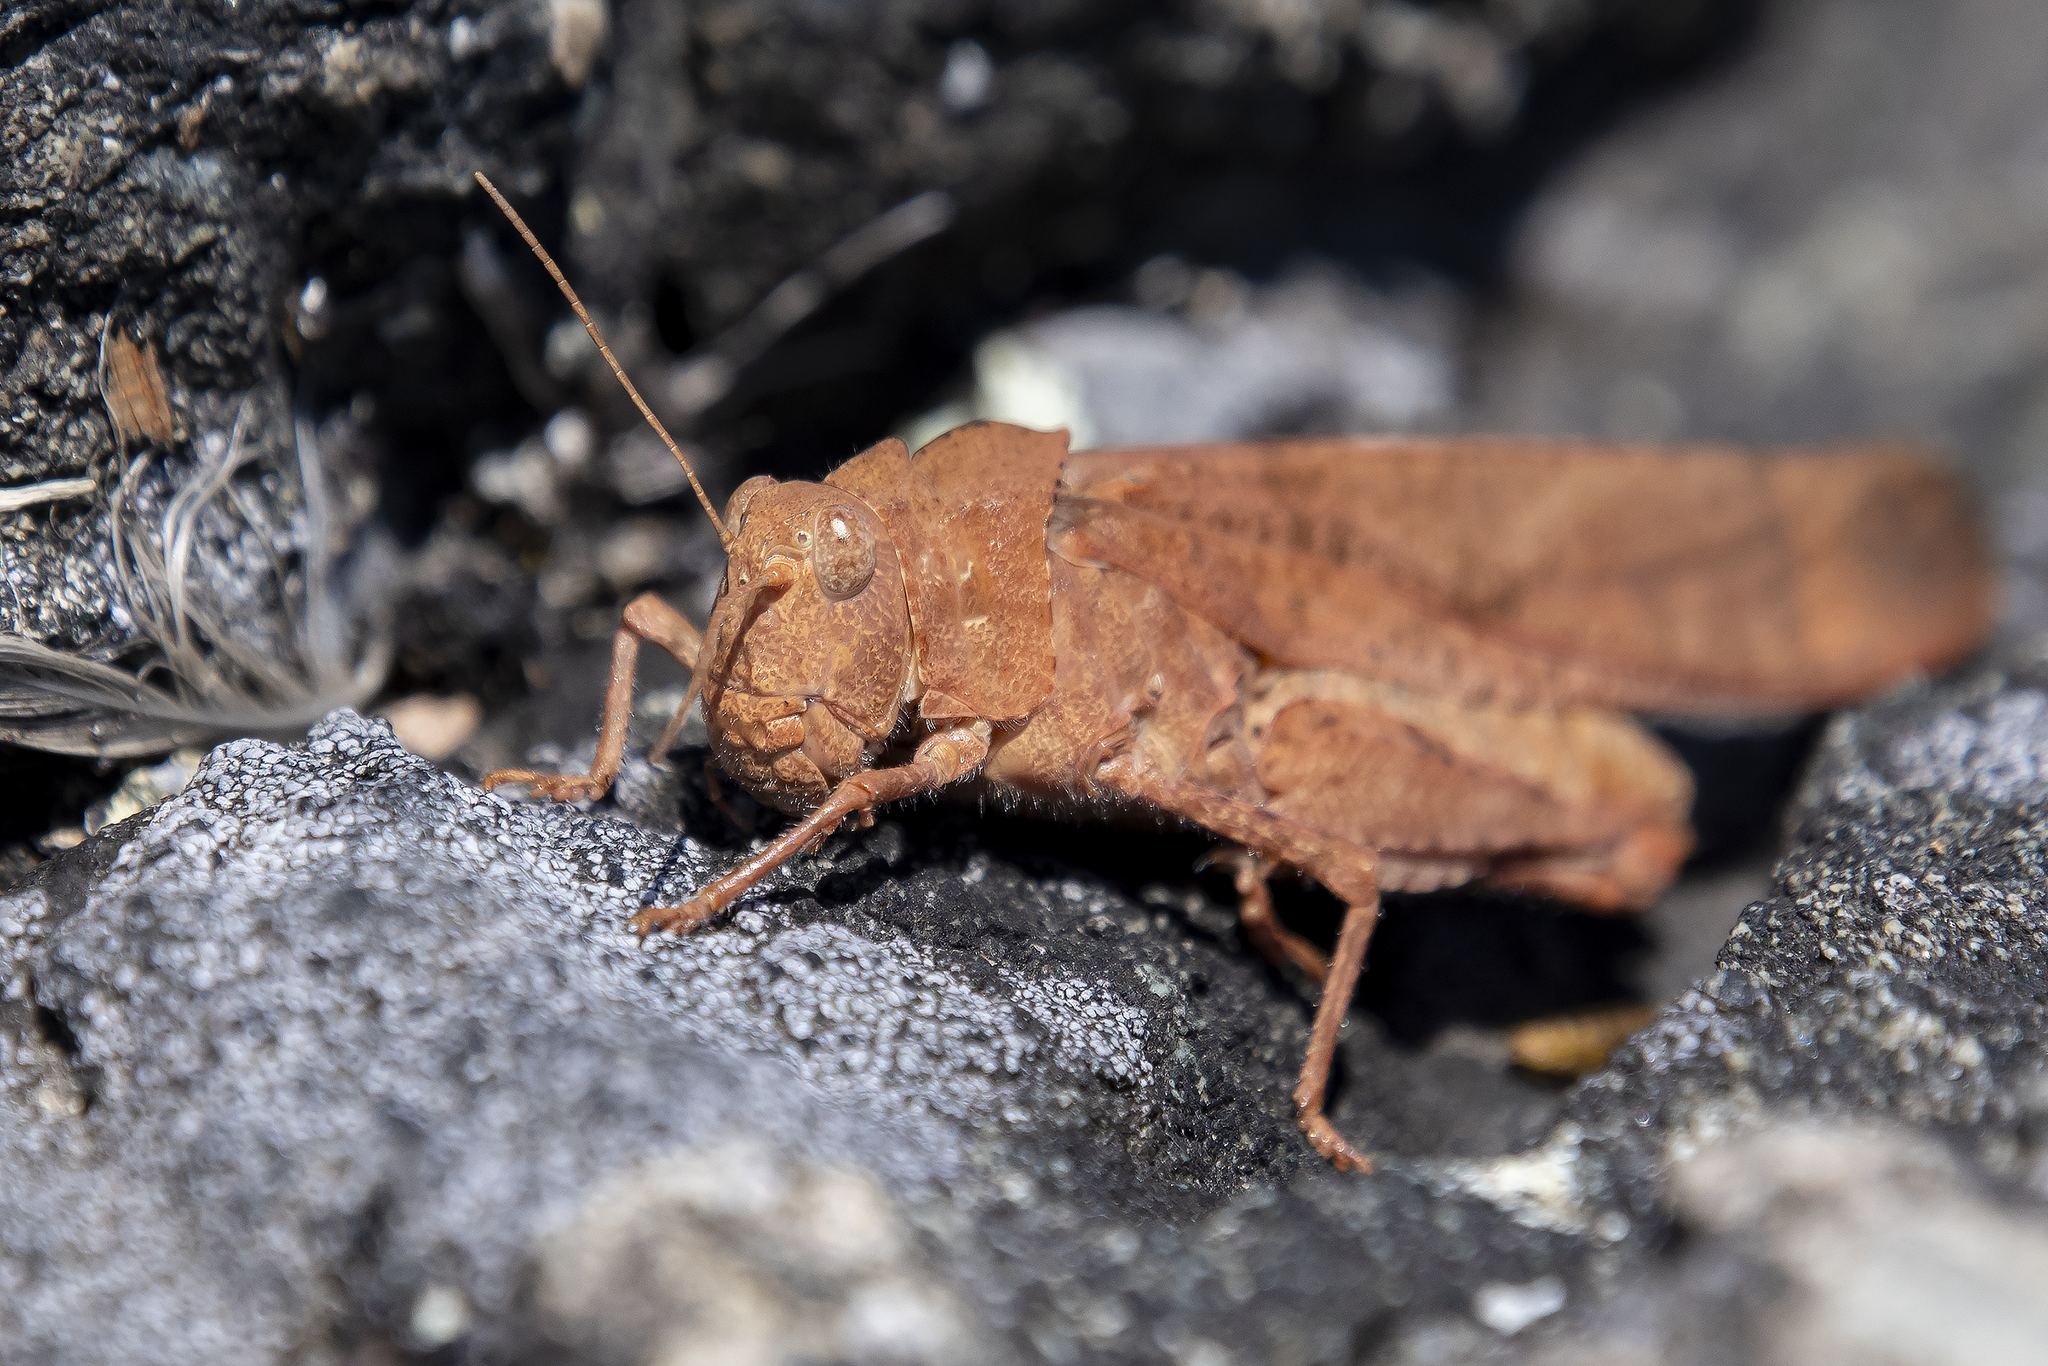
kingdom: Animalia
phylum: Arthropoda
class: Insecta
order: Orthoptera
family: Acrididae
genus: Dissosteira
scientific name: Dissosteira carolina
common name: Carolina grasshopper
